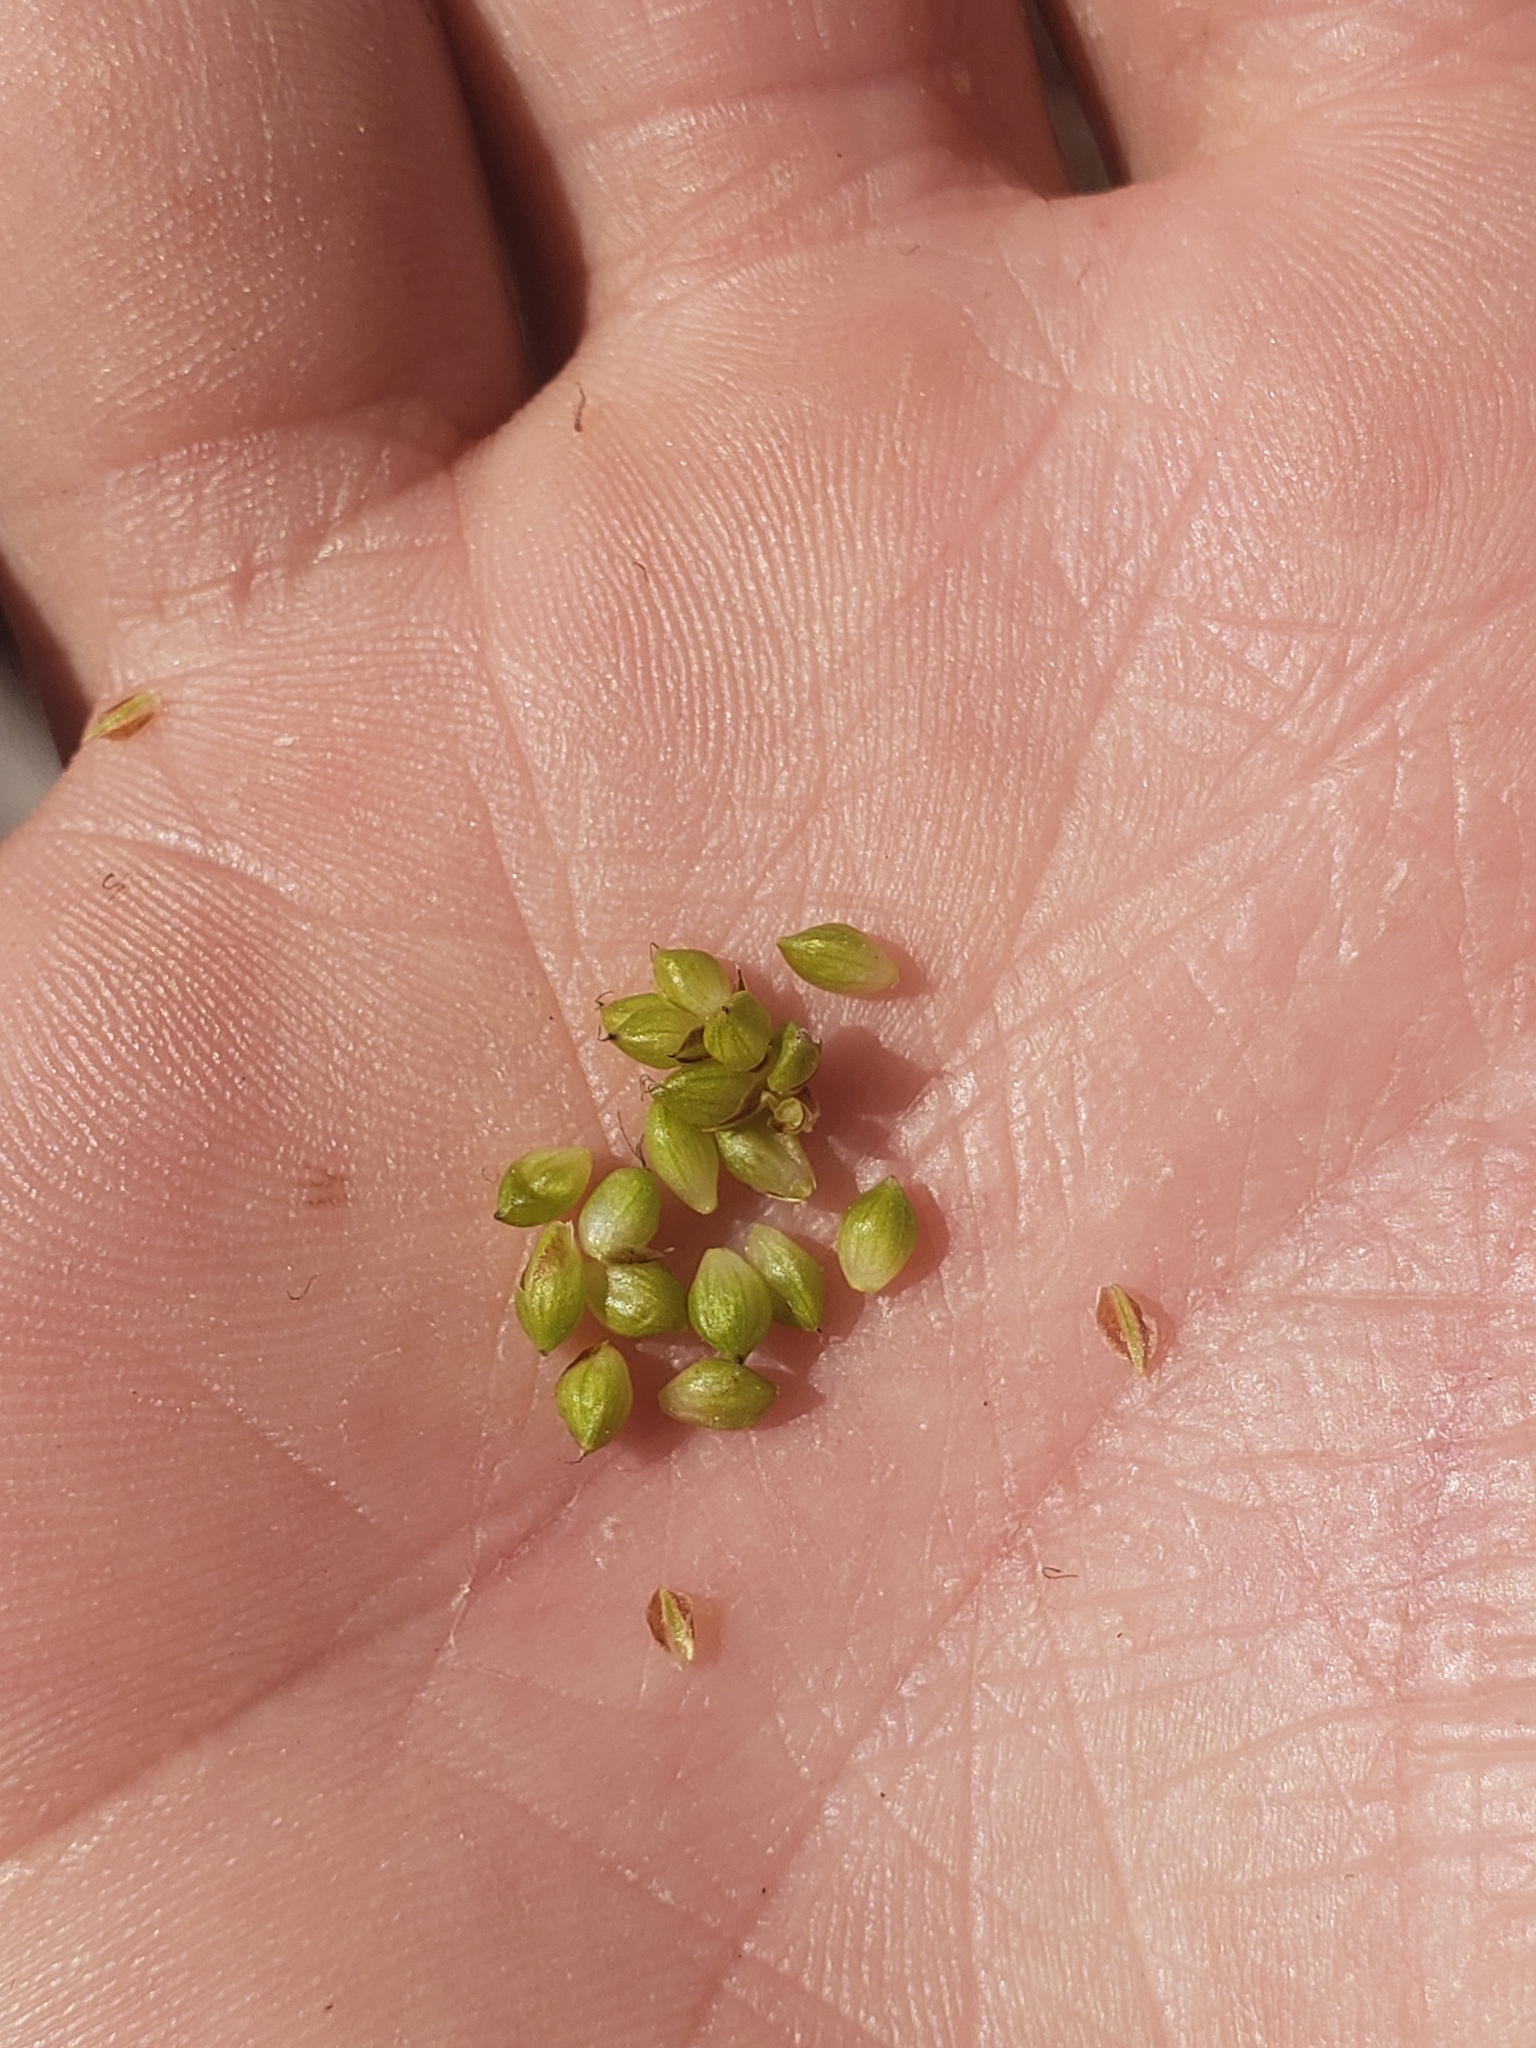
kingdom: Plantae
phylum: Tracheophyta
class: Liliopsida
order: Poales
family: Cyperaceae
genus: Carex
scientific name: Carex crawei
